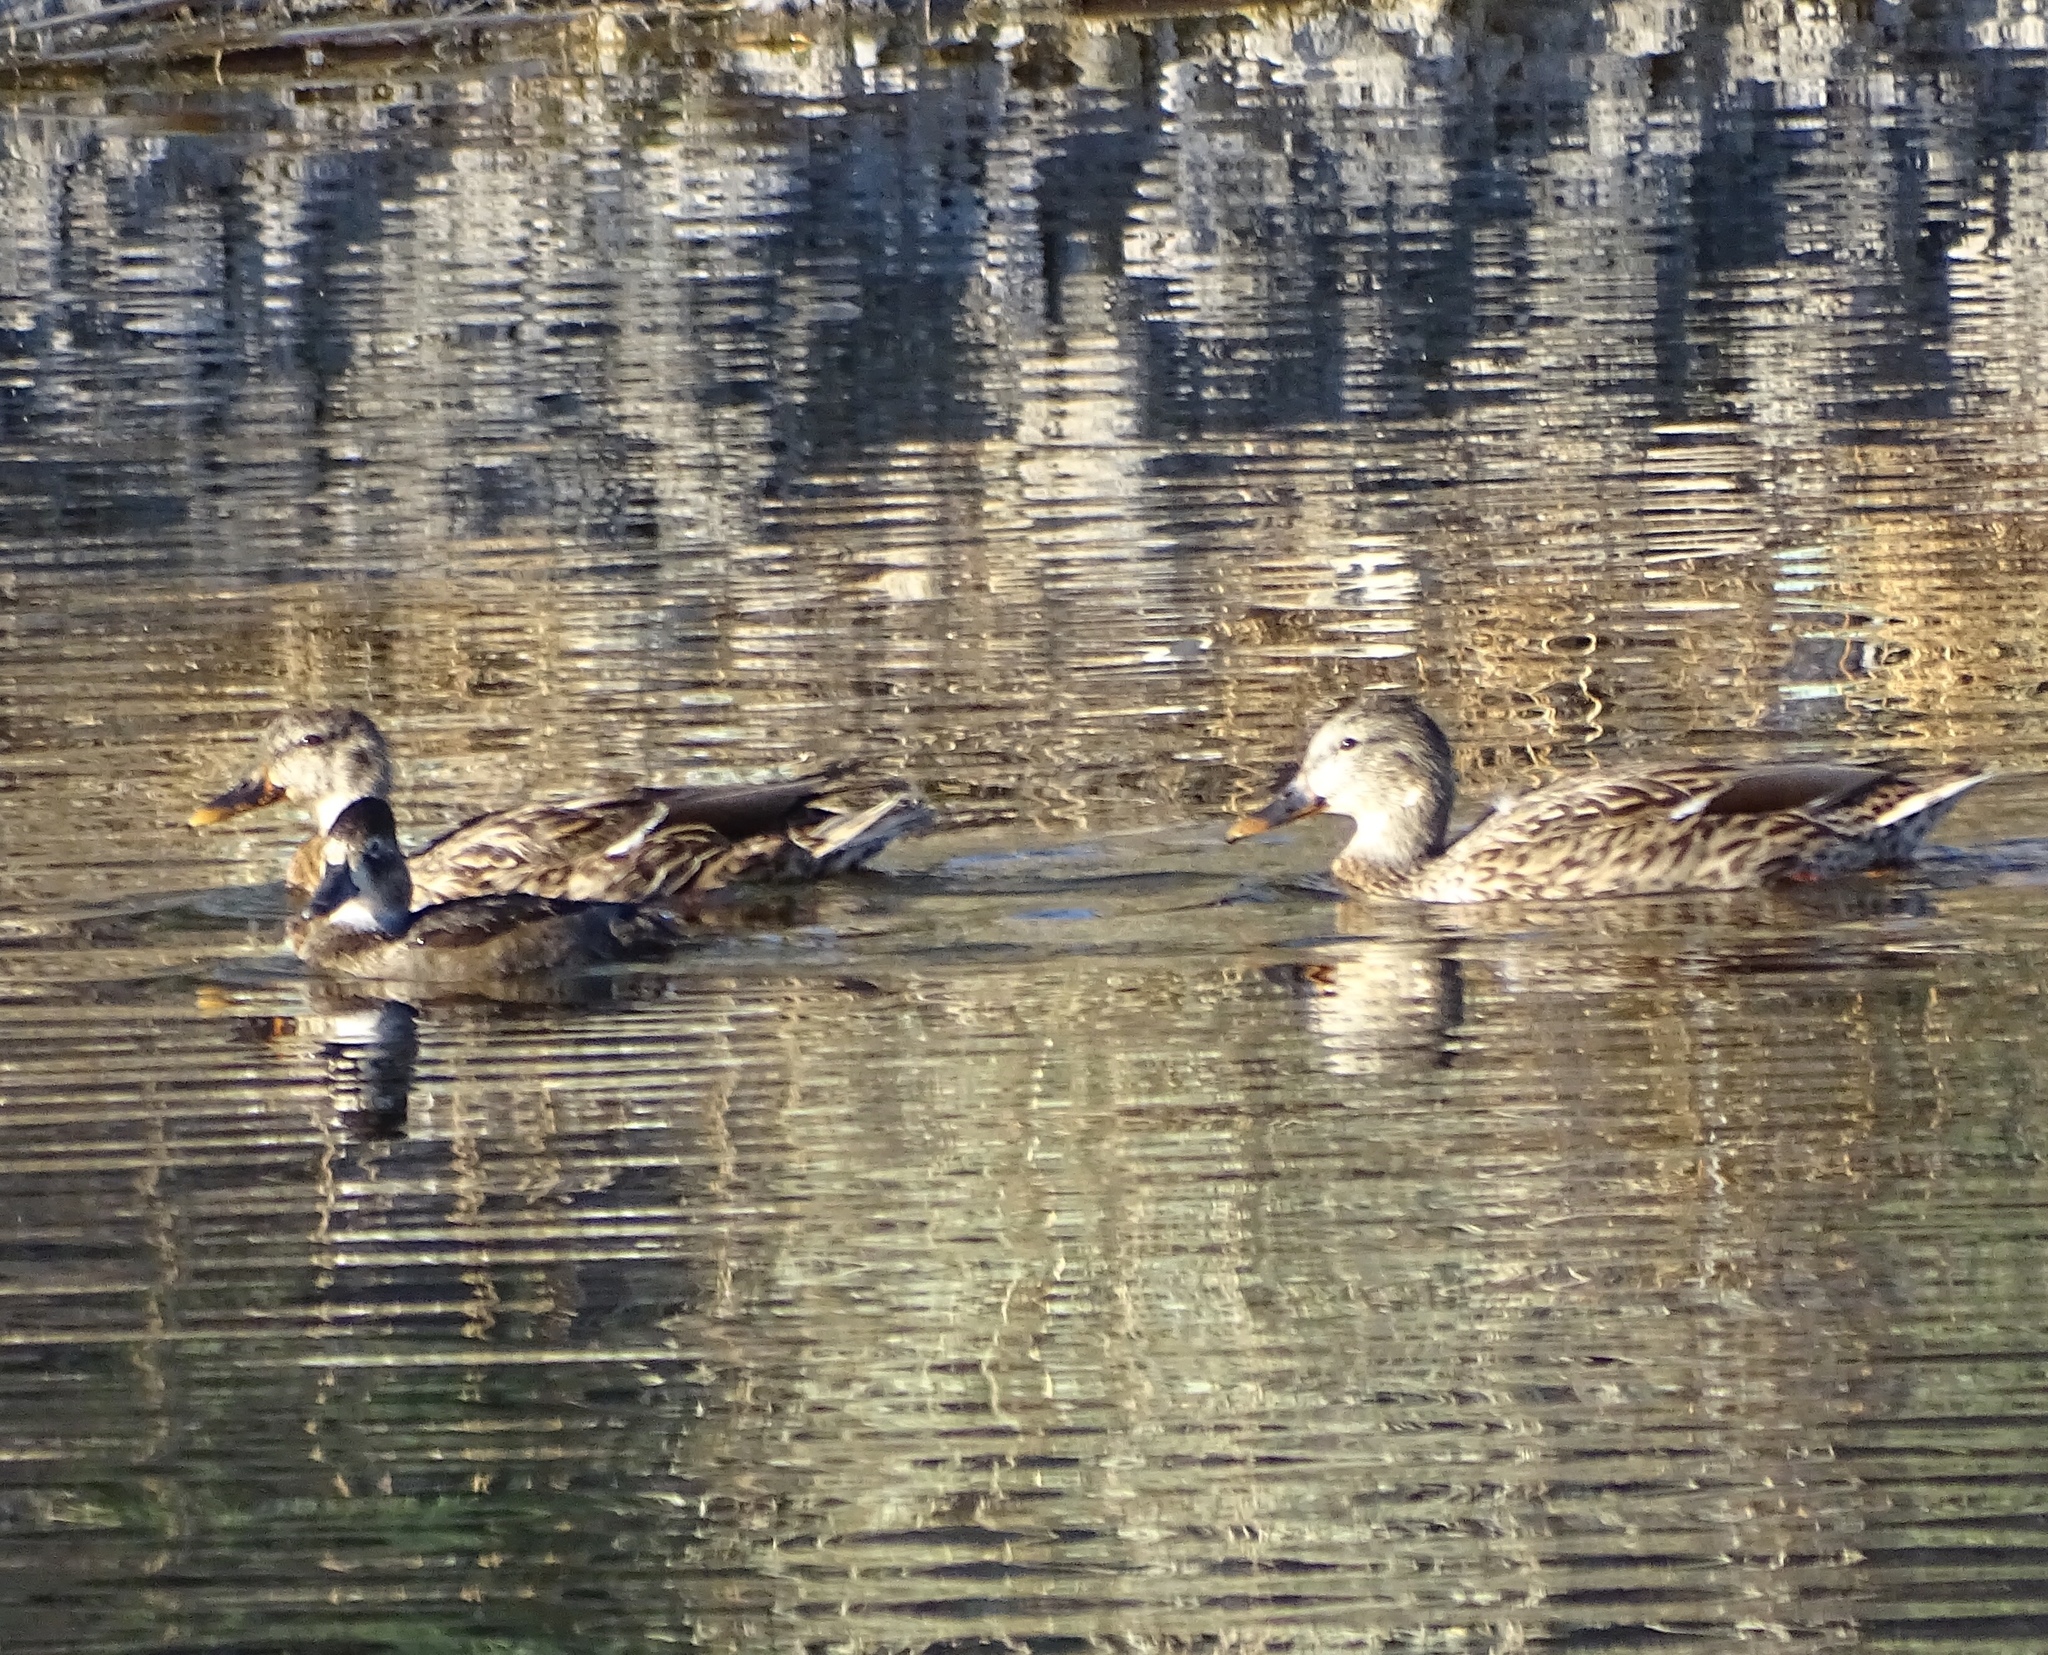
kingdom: Animalia
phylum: Chordata
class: Aves
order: Anseriformes
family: Anatidae
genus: Anas
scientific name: Anas platyrhynchos
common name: Mallard
